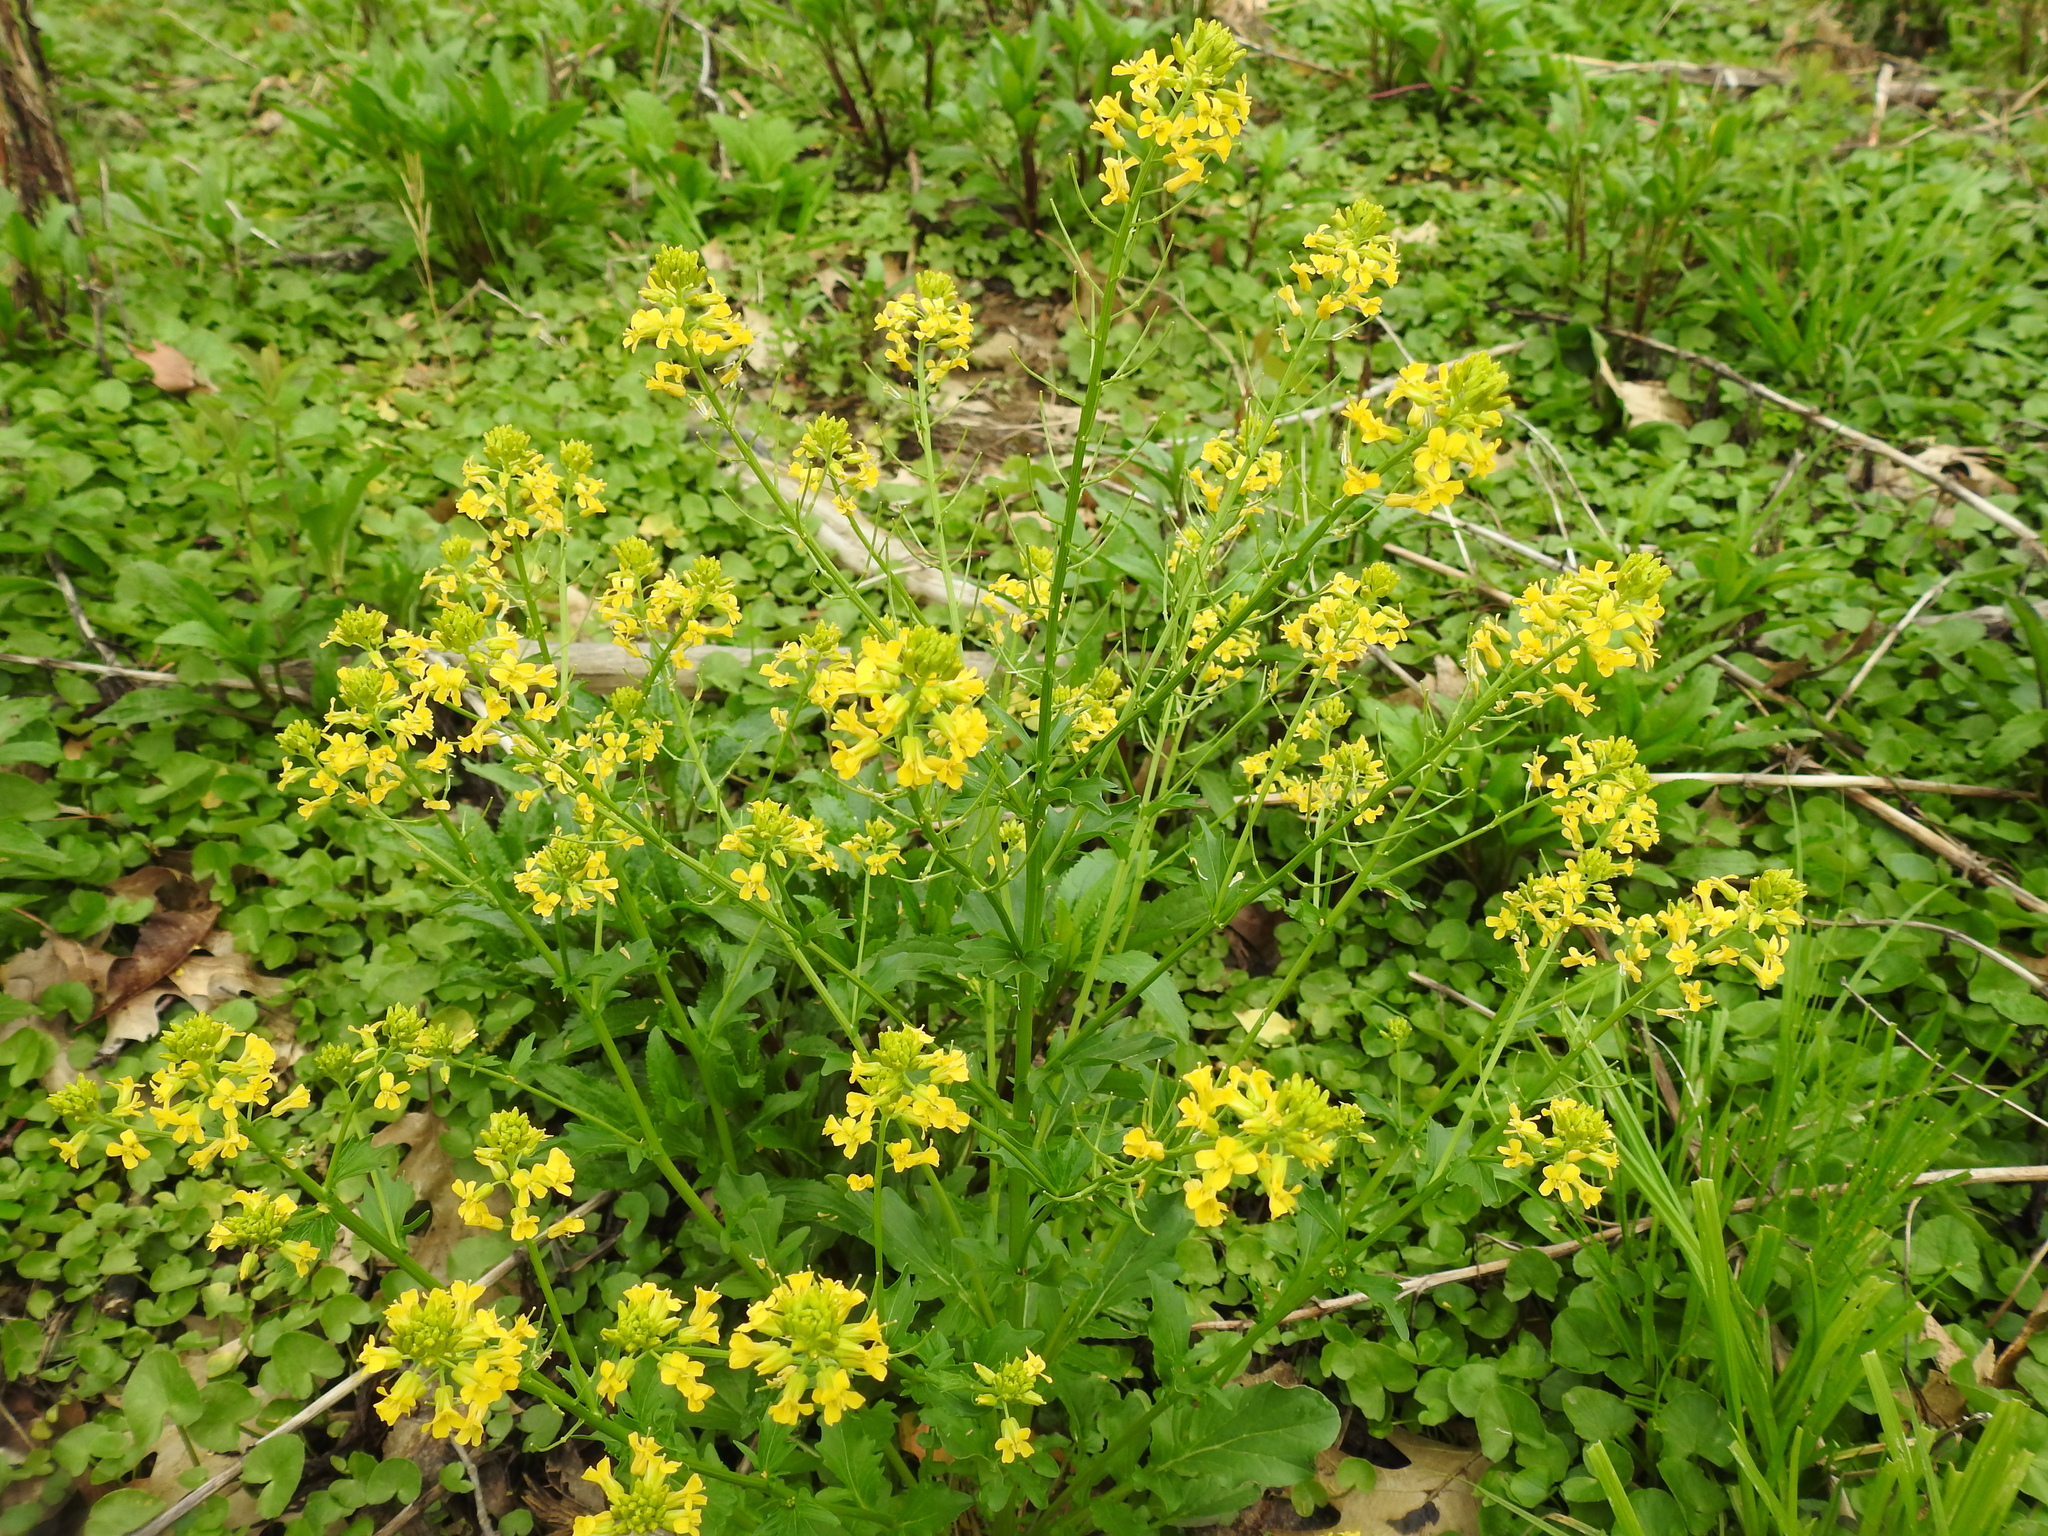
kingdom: Plantae
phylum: Tracheophyta
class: Magnoliopsida
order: Brassicales
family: Brassicaceae
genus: Barbarea
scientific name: Barbarea vulgaris
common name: Cressy-greens
